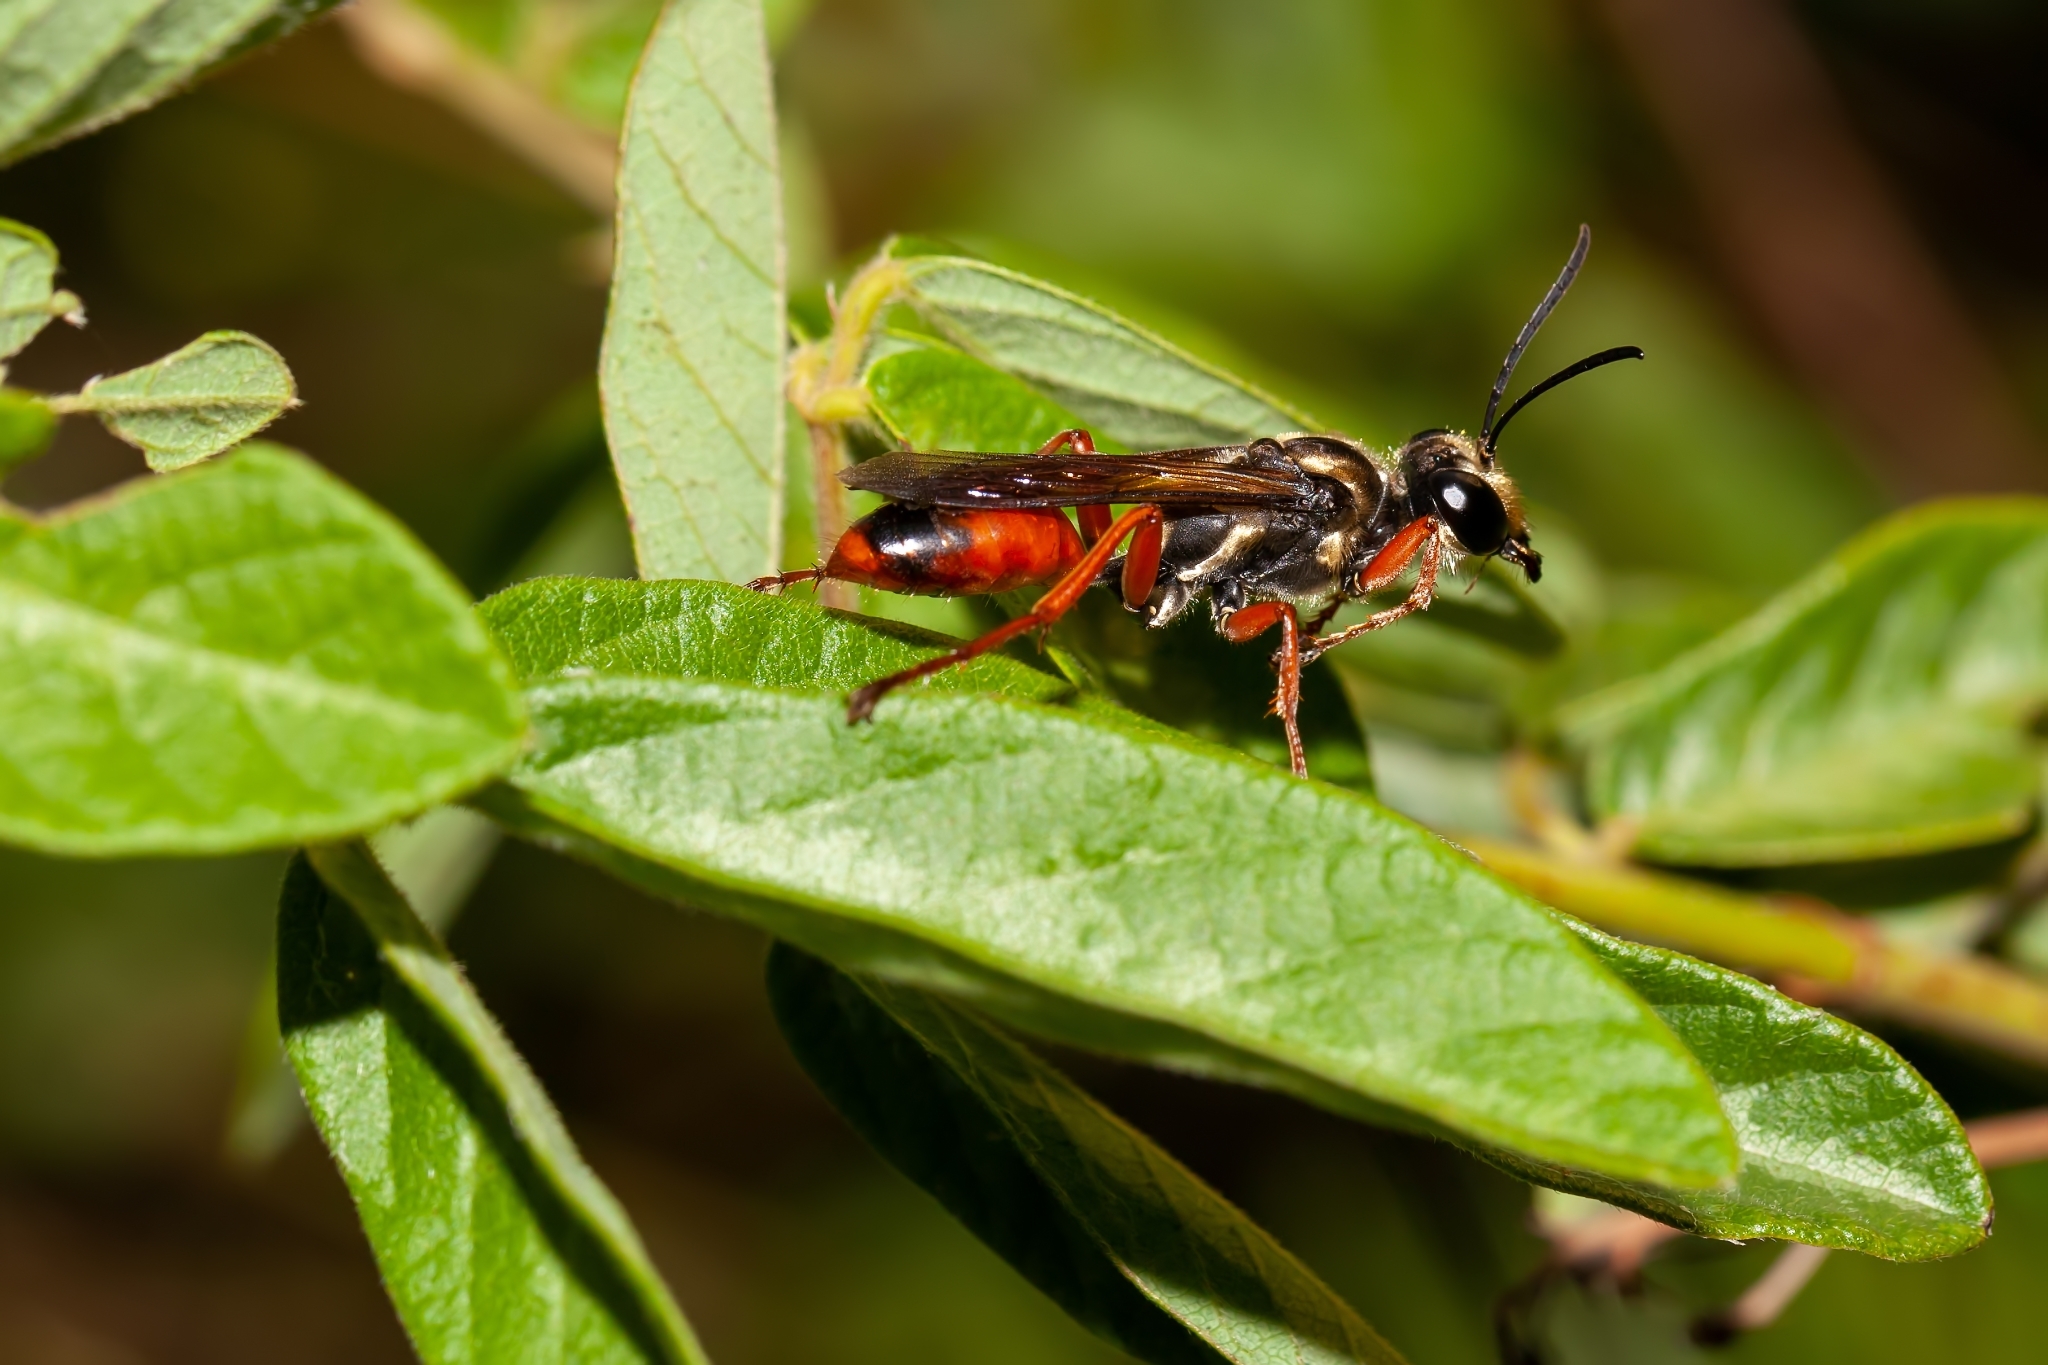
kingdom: Animalia
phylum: Arthropoda
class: Insecta
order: Hymenoptera
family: Sphecidae
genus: Sphex
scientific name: Sphex dorsalis
